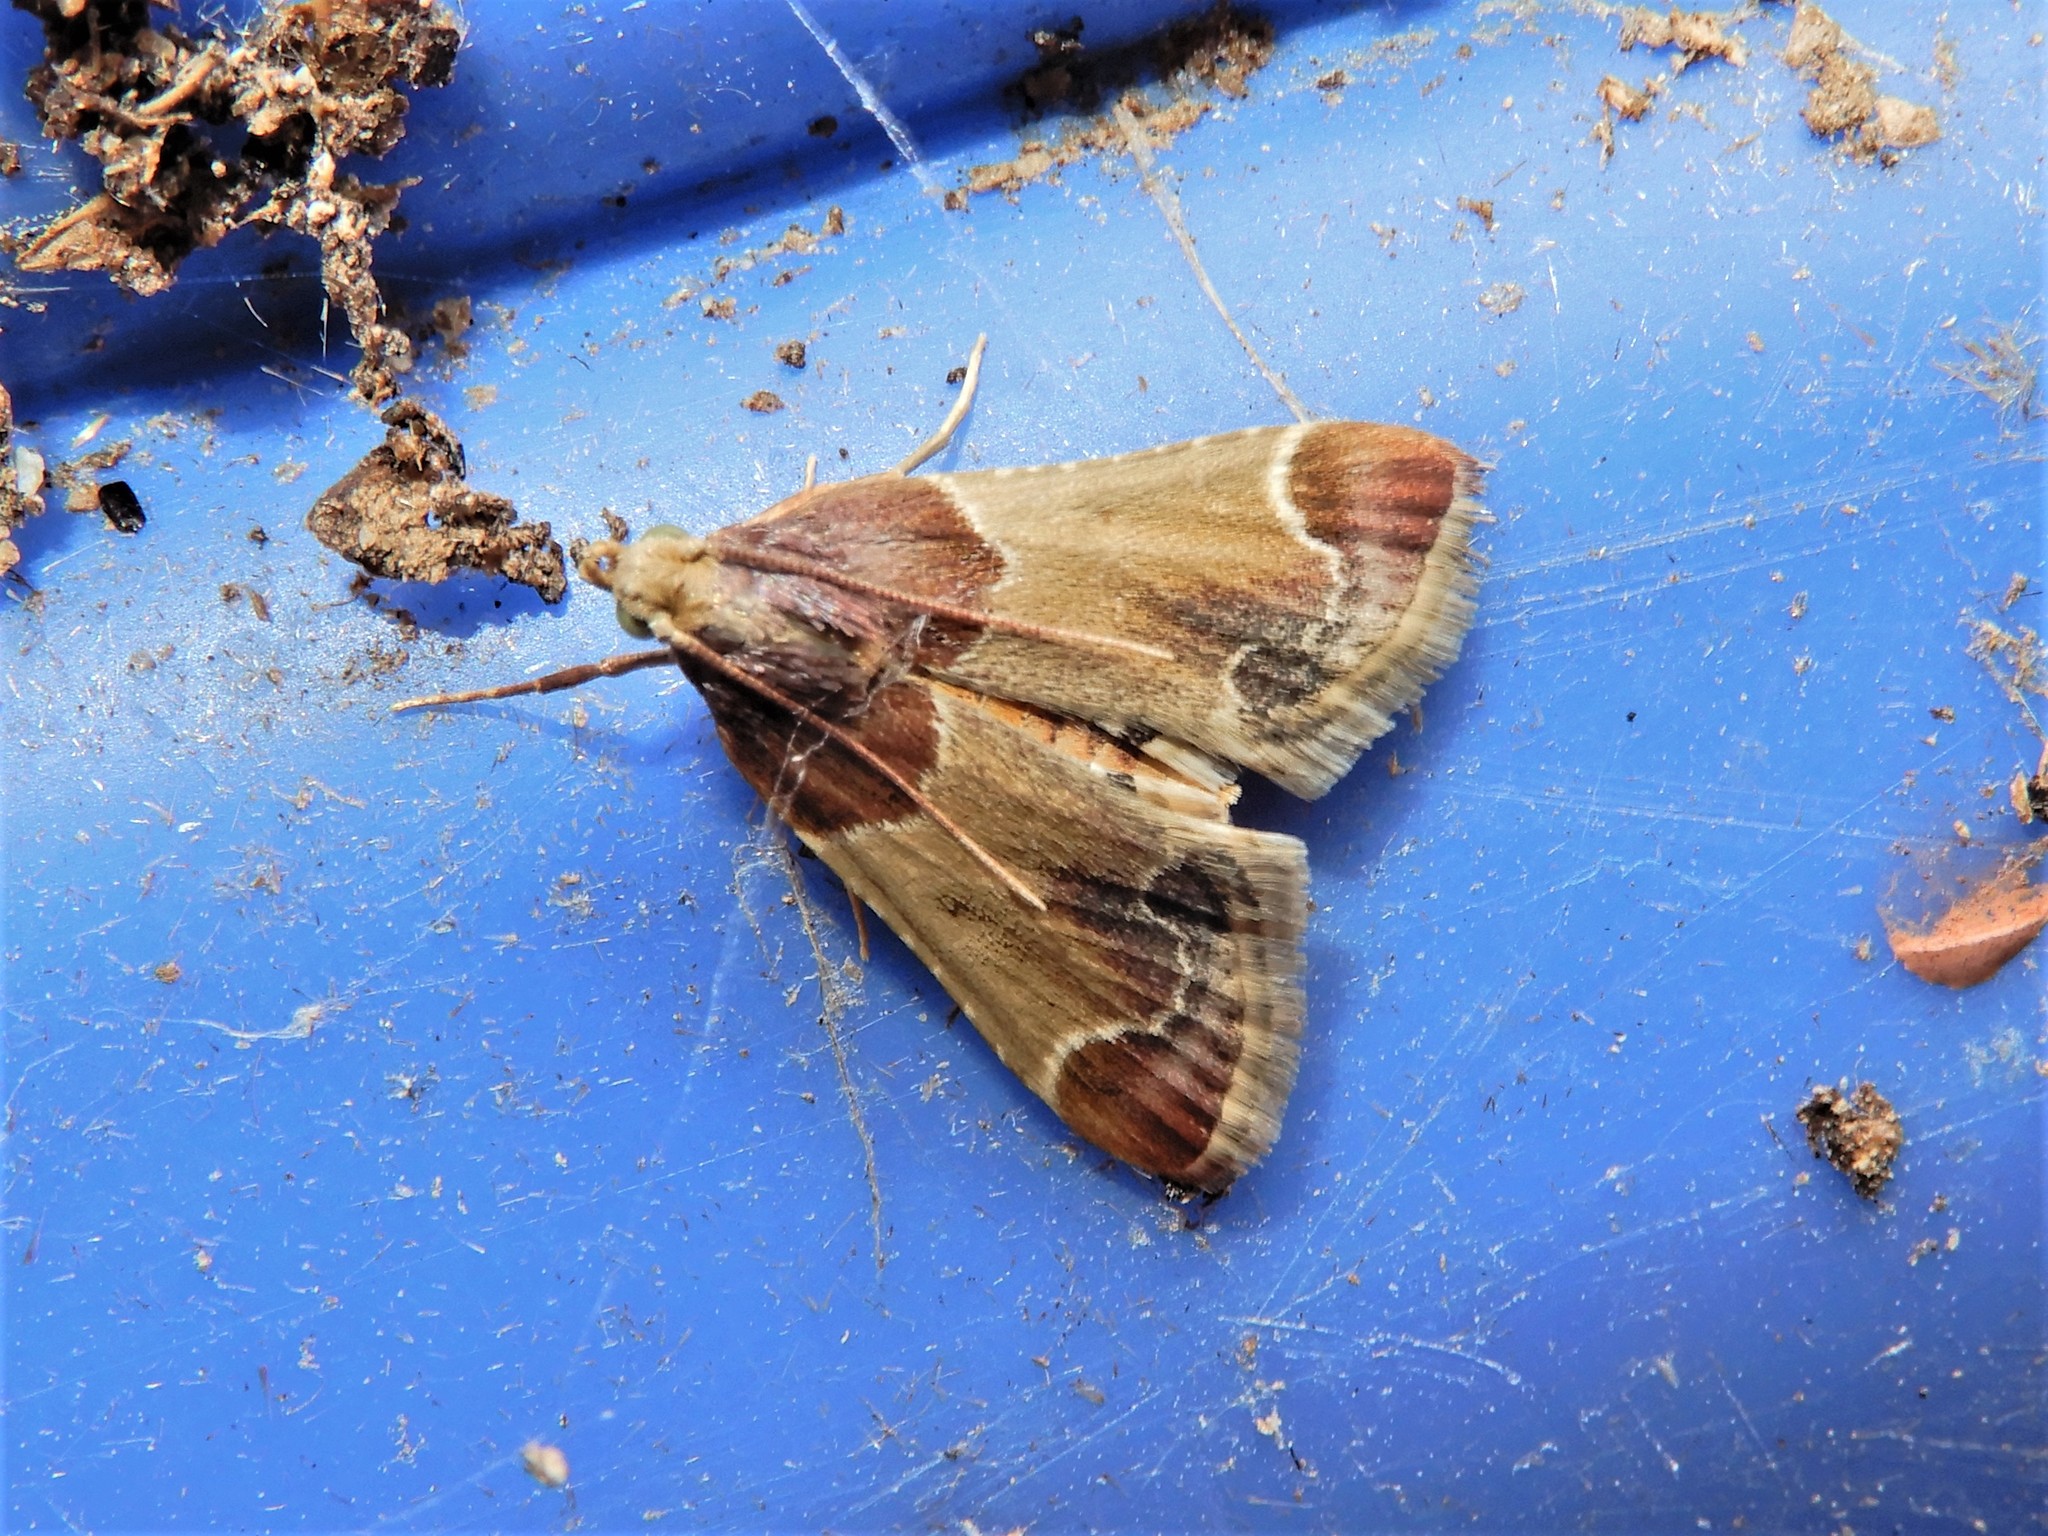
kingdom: Animalia
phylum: Arthropoda
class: Insecta
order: Lepidoptera
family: Pyralidae
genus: Pyralis
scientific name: Pyralis farinalis
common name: Meal moth
